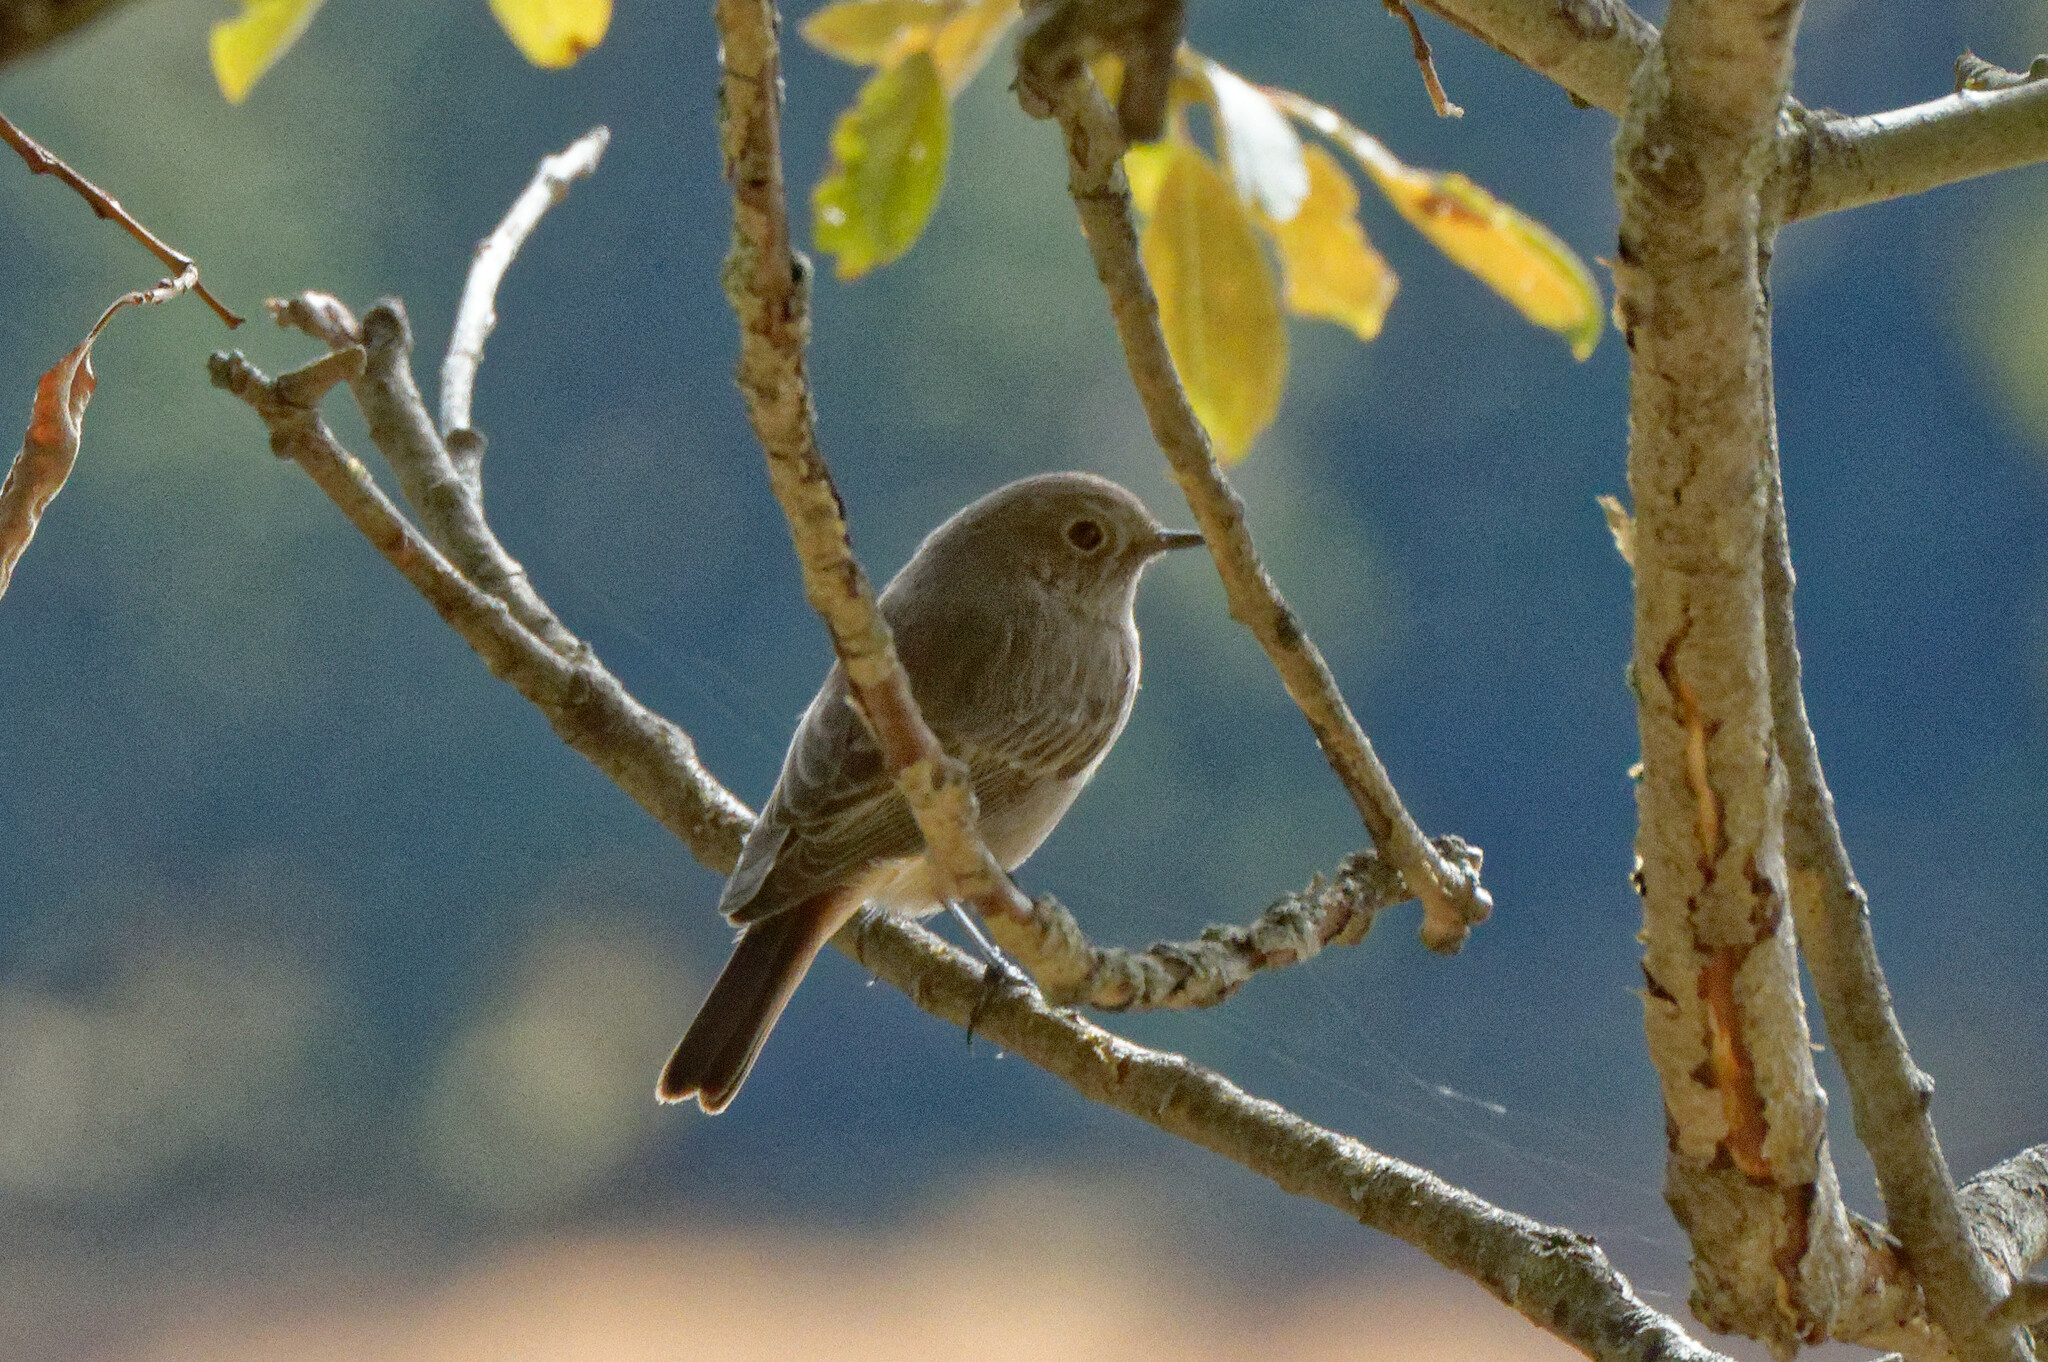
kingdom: Animalia
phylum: Chordata
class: Aves
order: Passeriformes
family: Muscicapidae
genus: Phoenicurus
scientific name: Phoenicurus ochruros
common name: Black redstart
